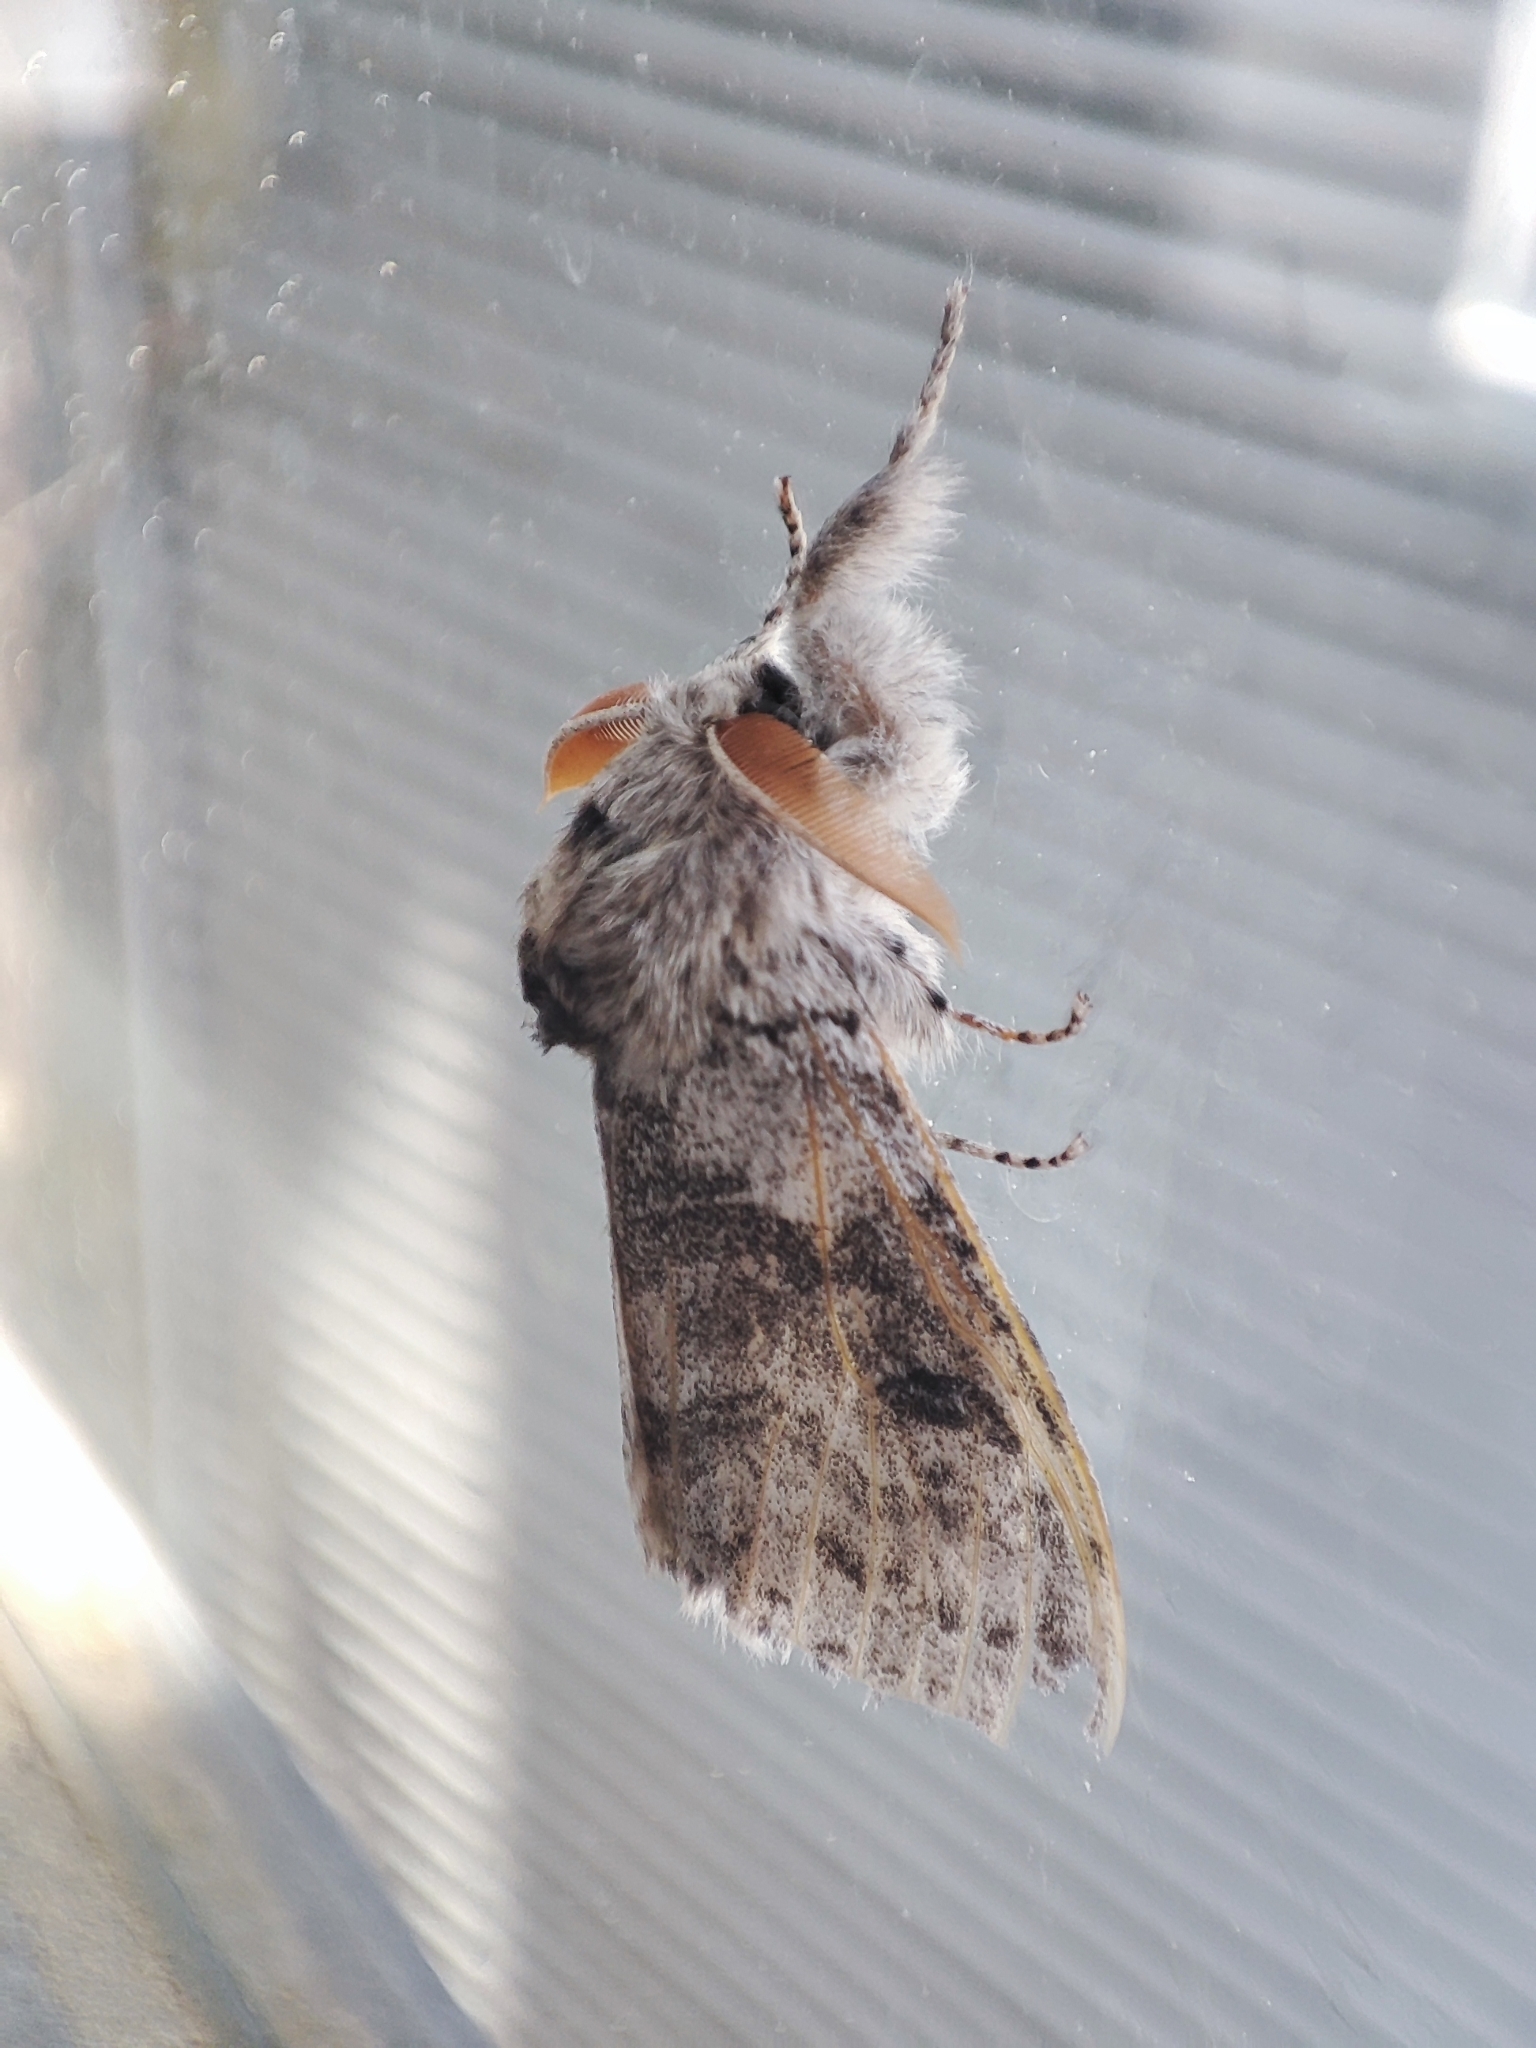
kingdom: Animalia
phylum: Arthropoda
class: Insecta
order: Lepidoptera
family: Erebidae
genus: Calliteara
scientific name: Calliteara pudibunda
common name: Pale tussock
